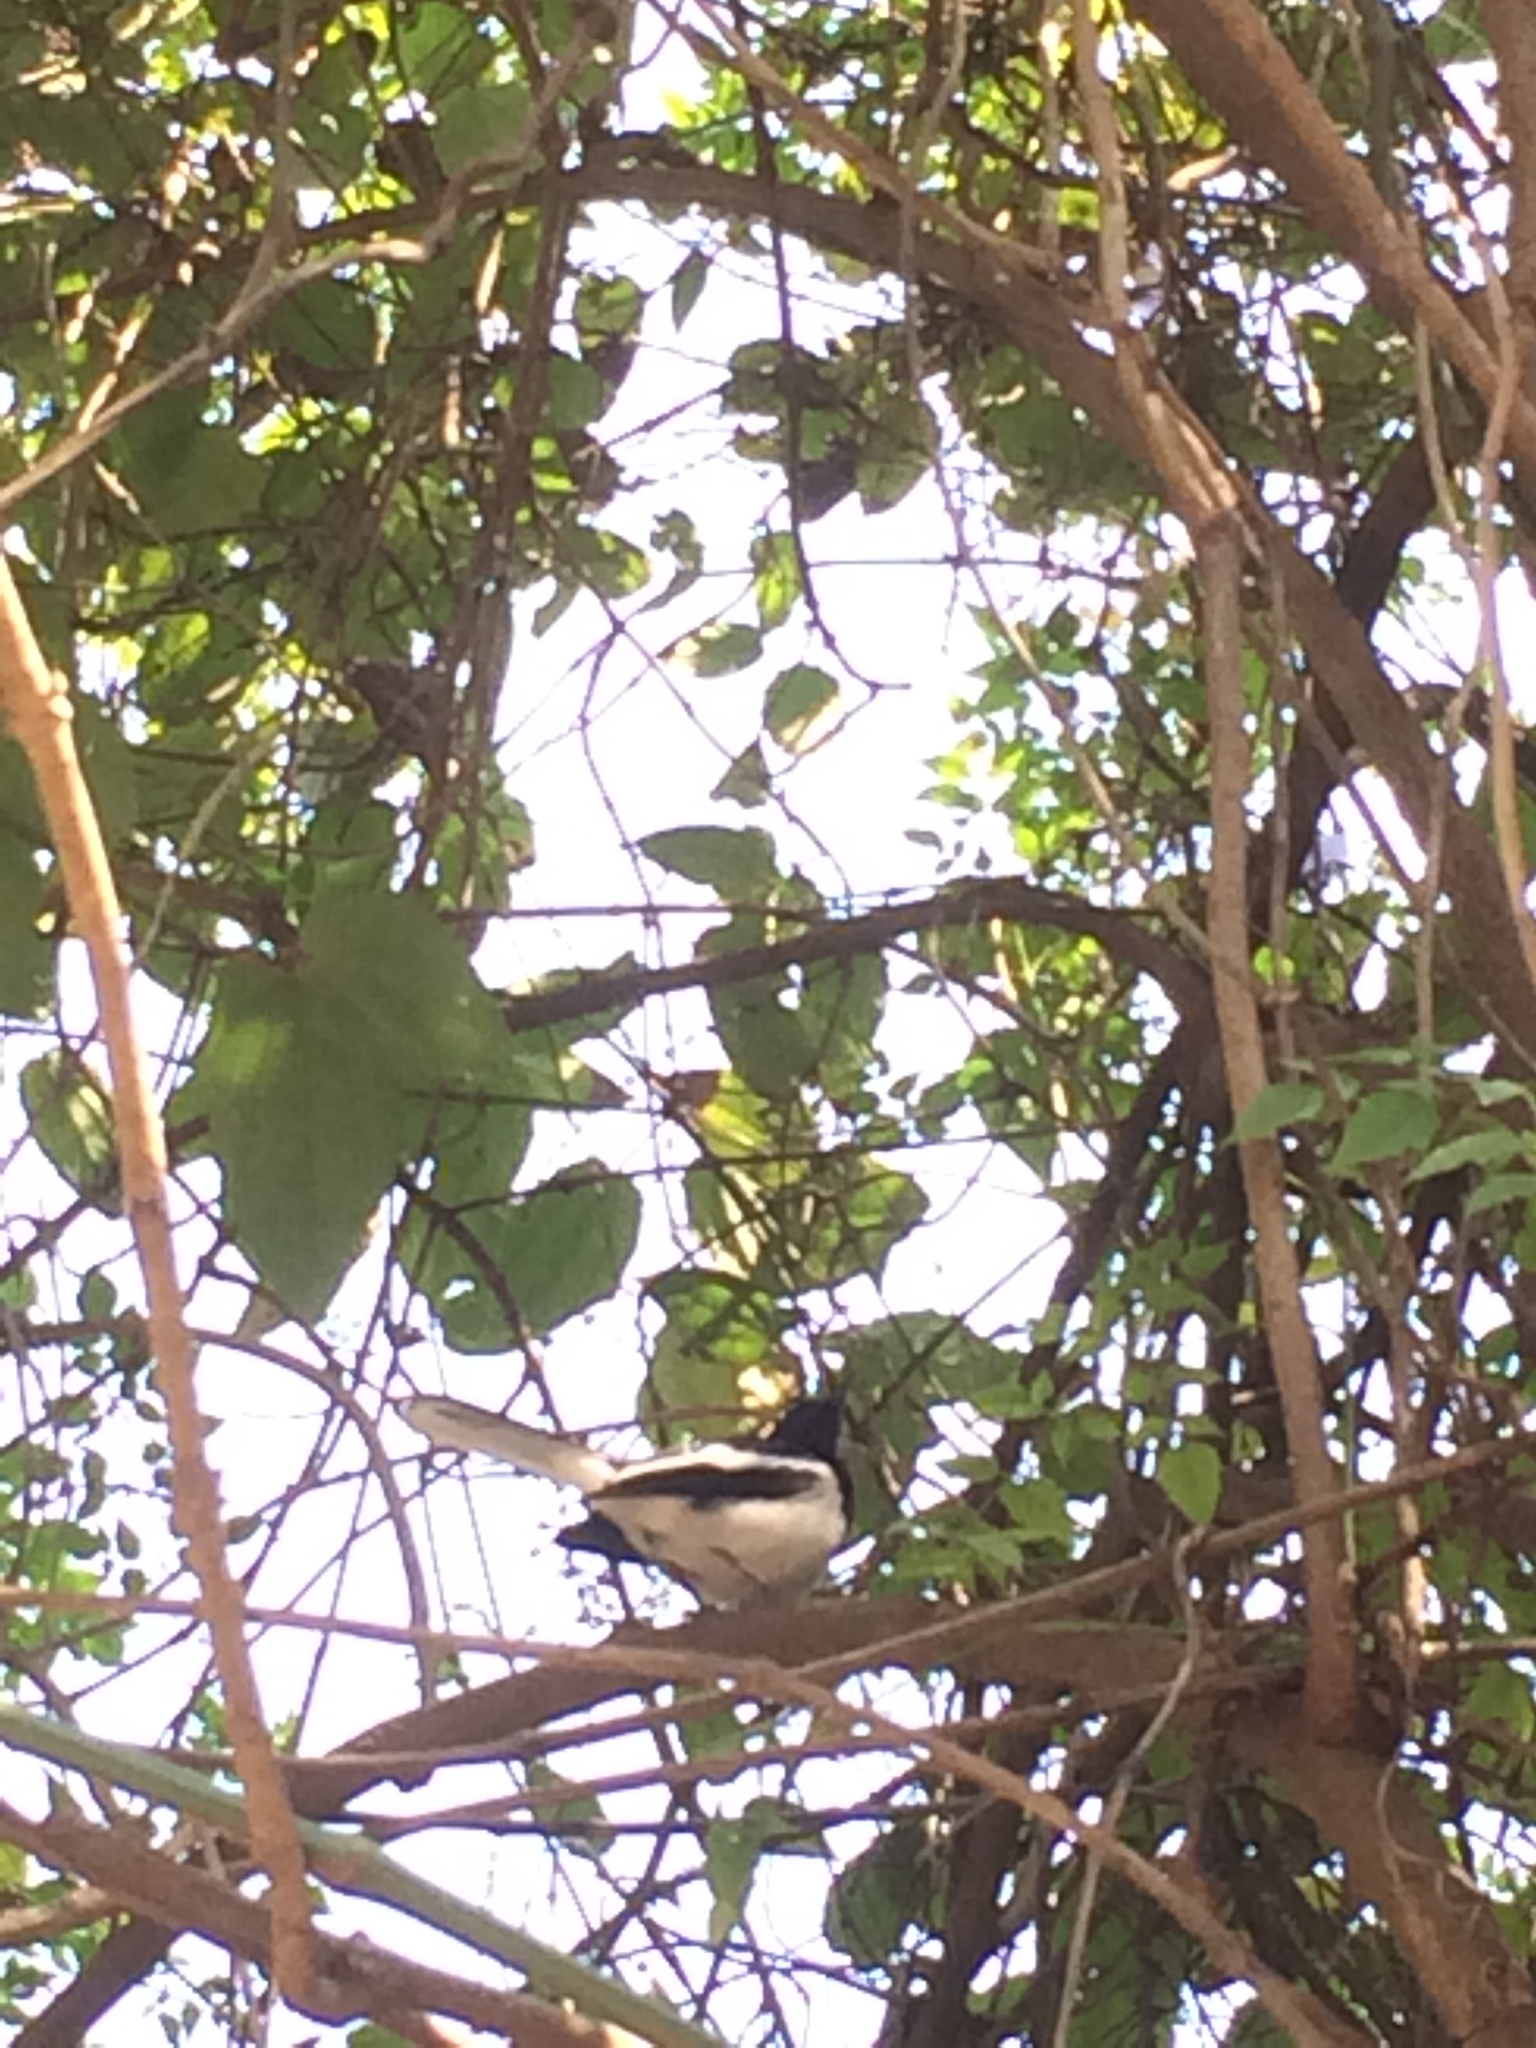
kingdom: Animalia
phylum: Chordata
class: Aves
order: Passeriformes
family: Muscicapidae
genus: Copsychus
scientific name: Copsychus saularis
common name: Oriental magpie-robin
